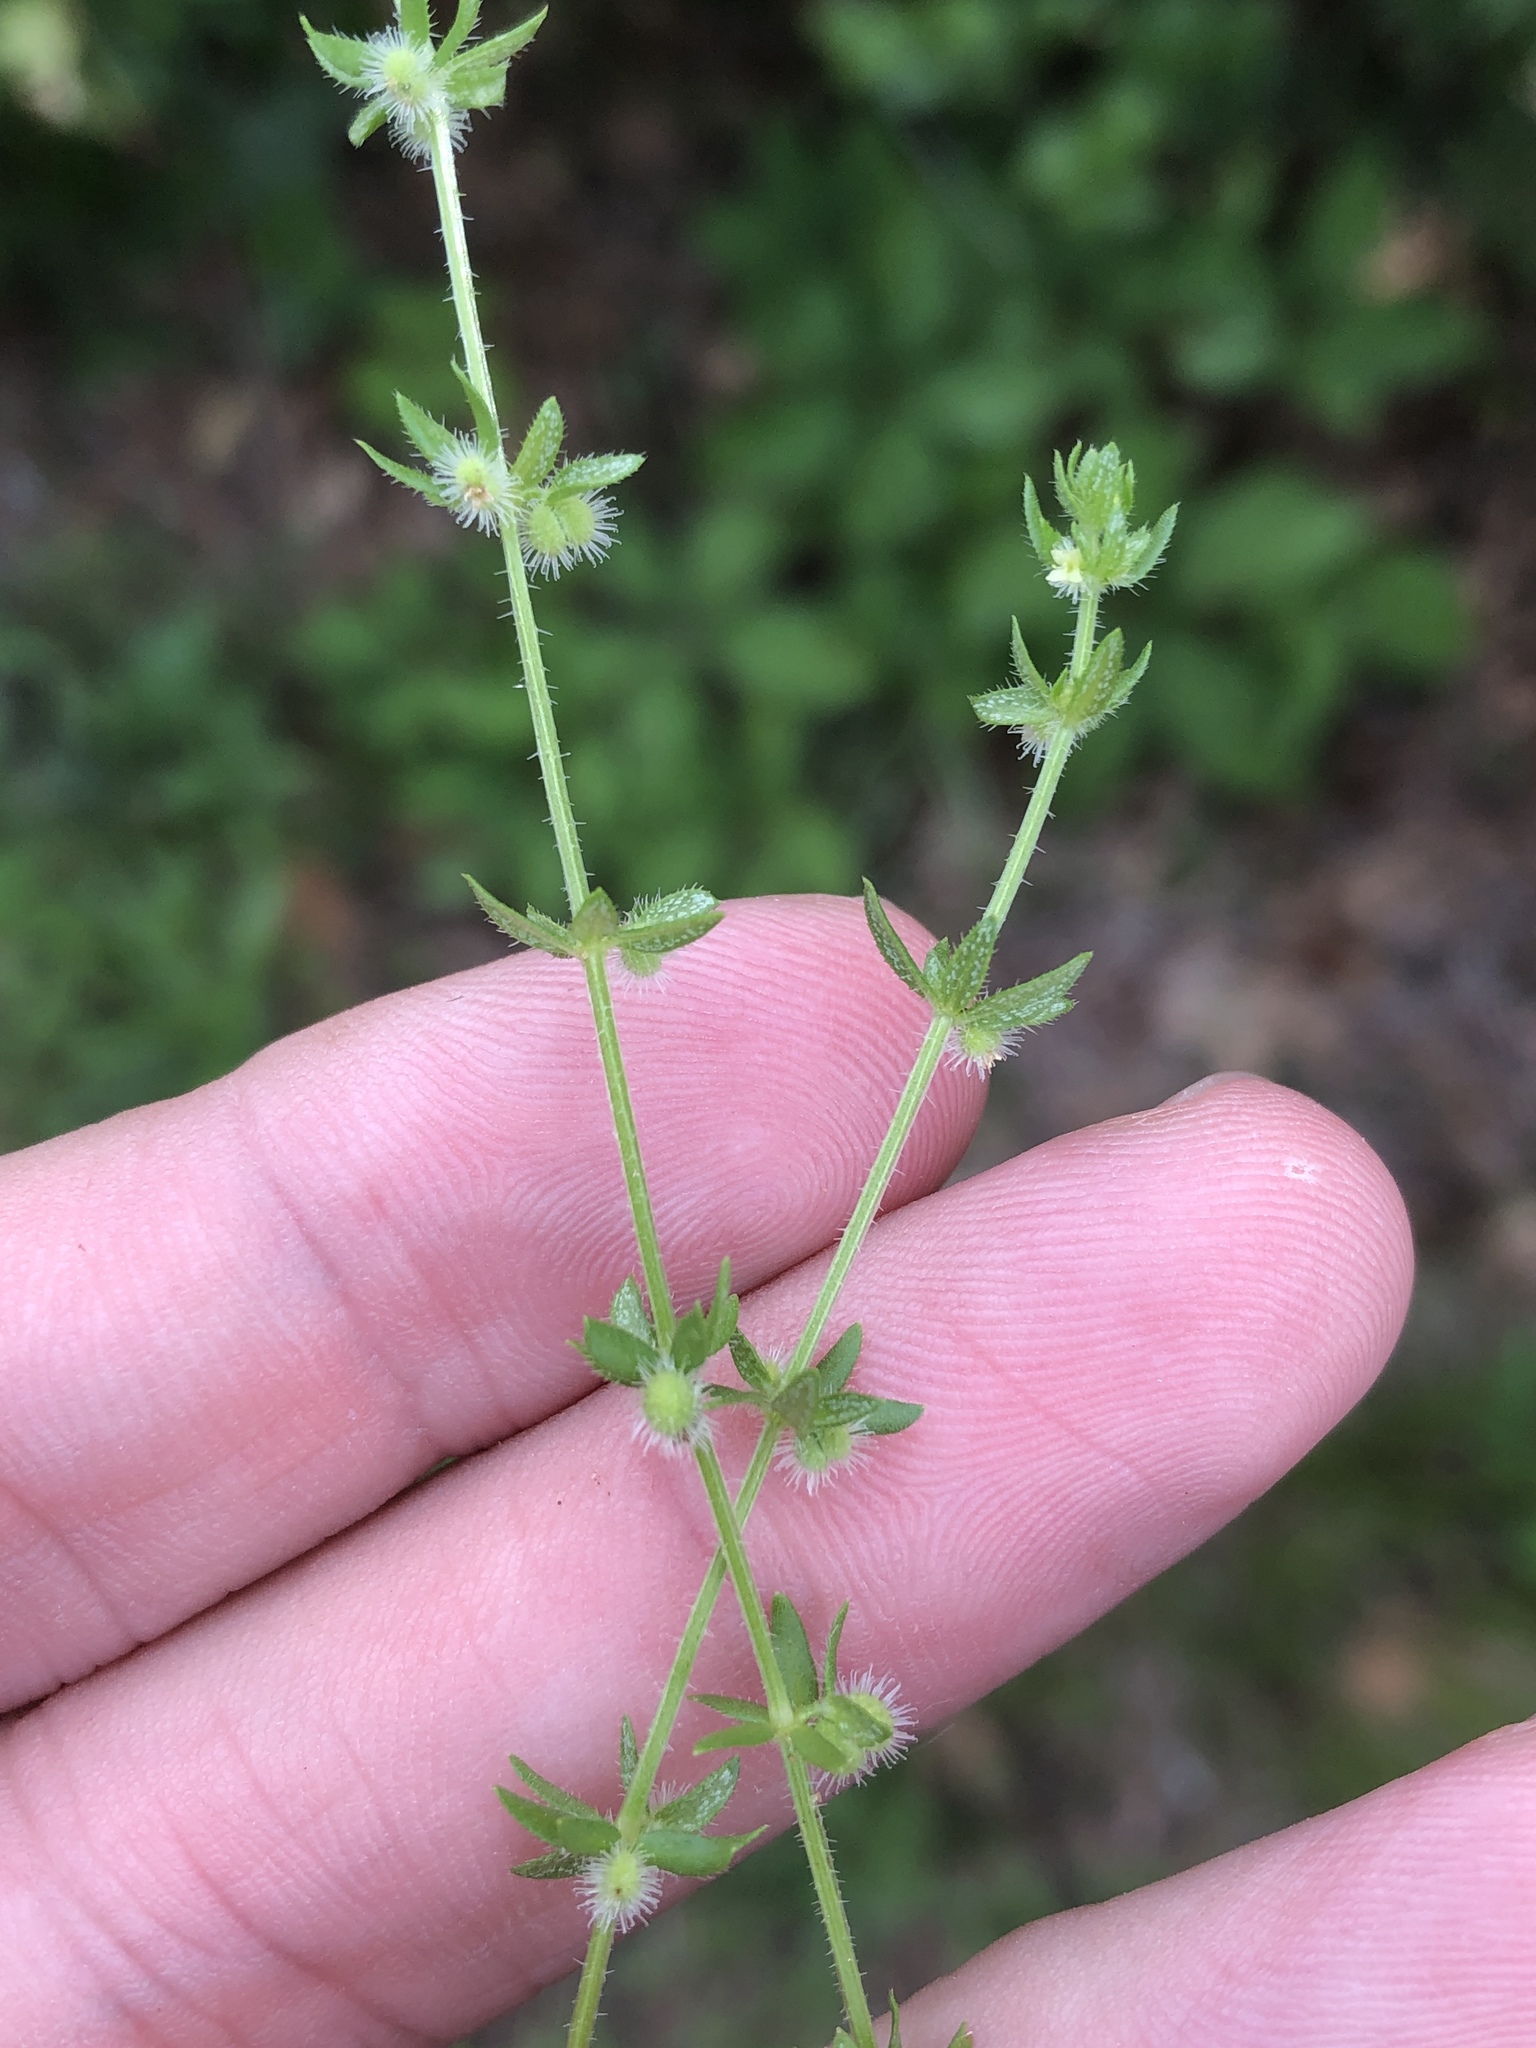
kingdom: Plantae
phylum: Tracheophyta
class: Magnoliopsida
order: Gentianales
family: Rubiaceae
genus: Galium
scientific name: Galium virgatum
